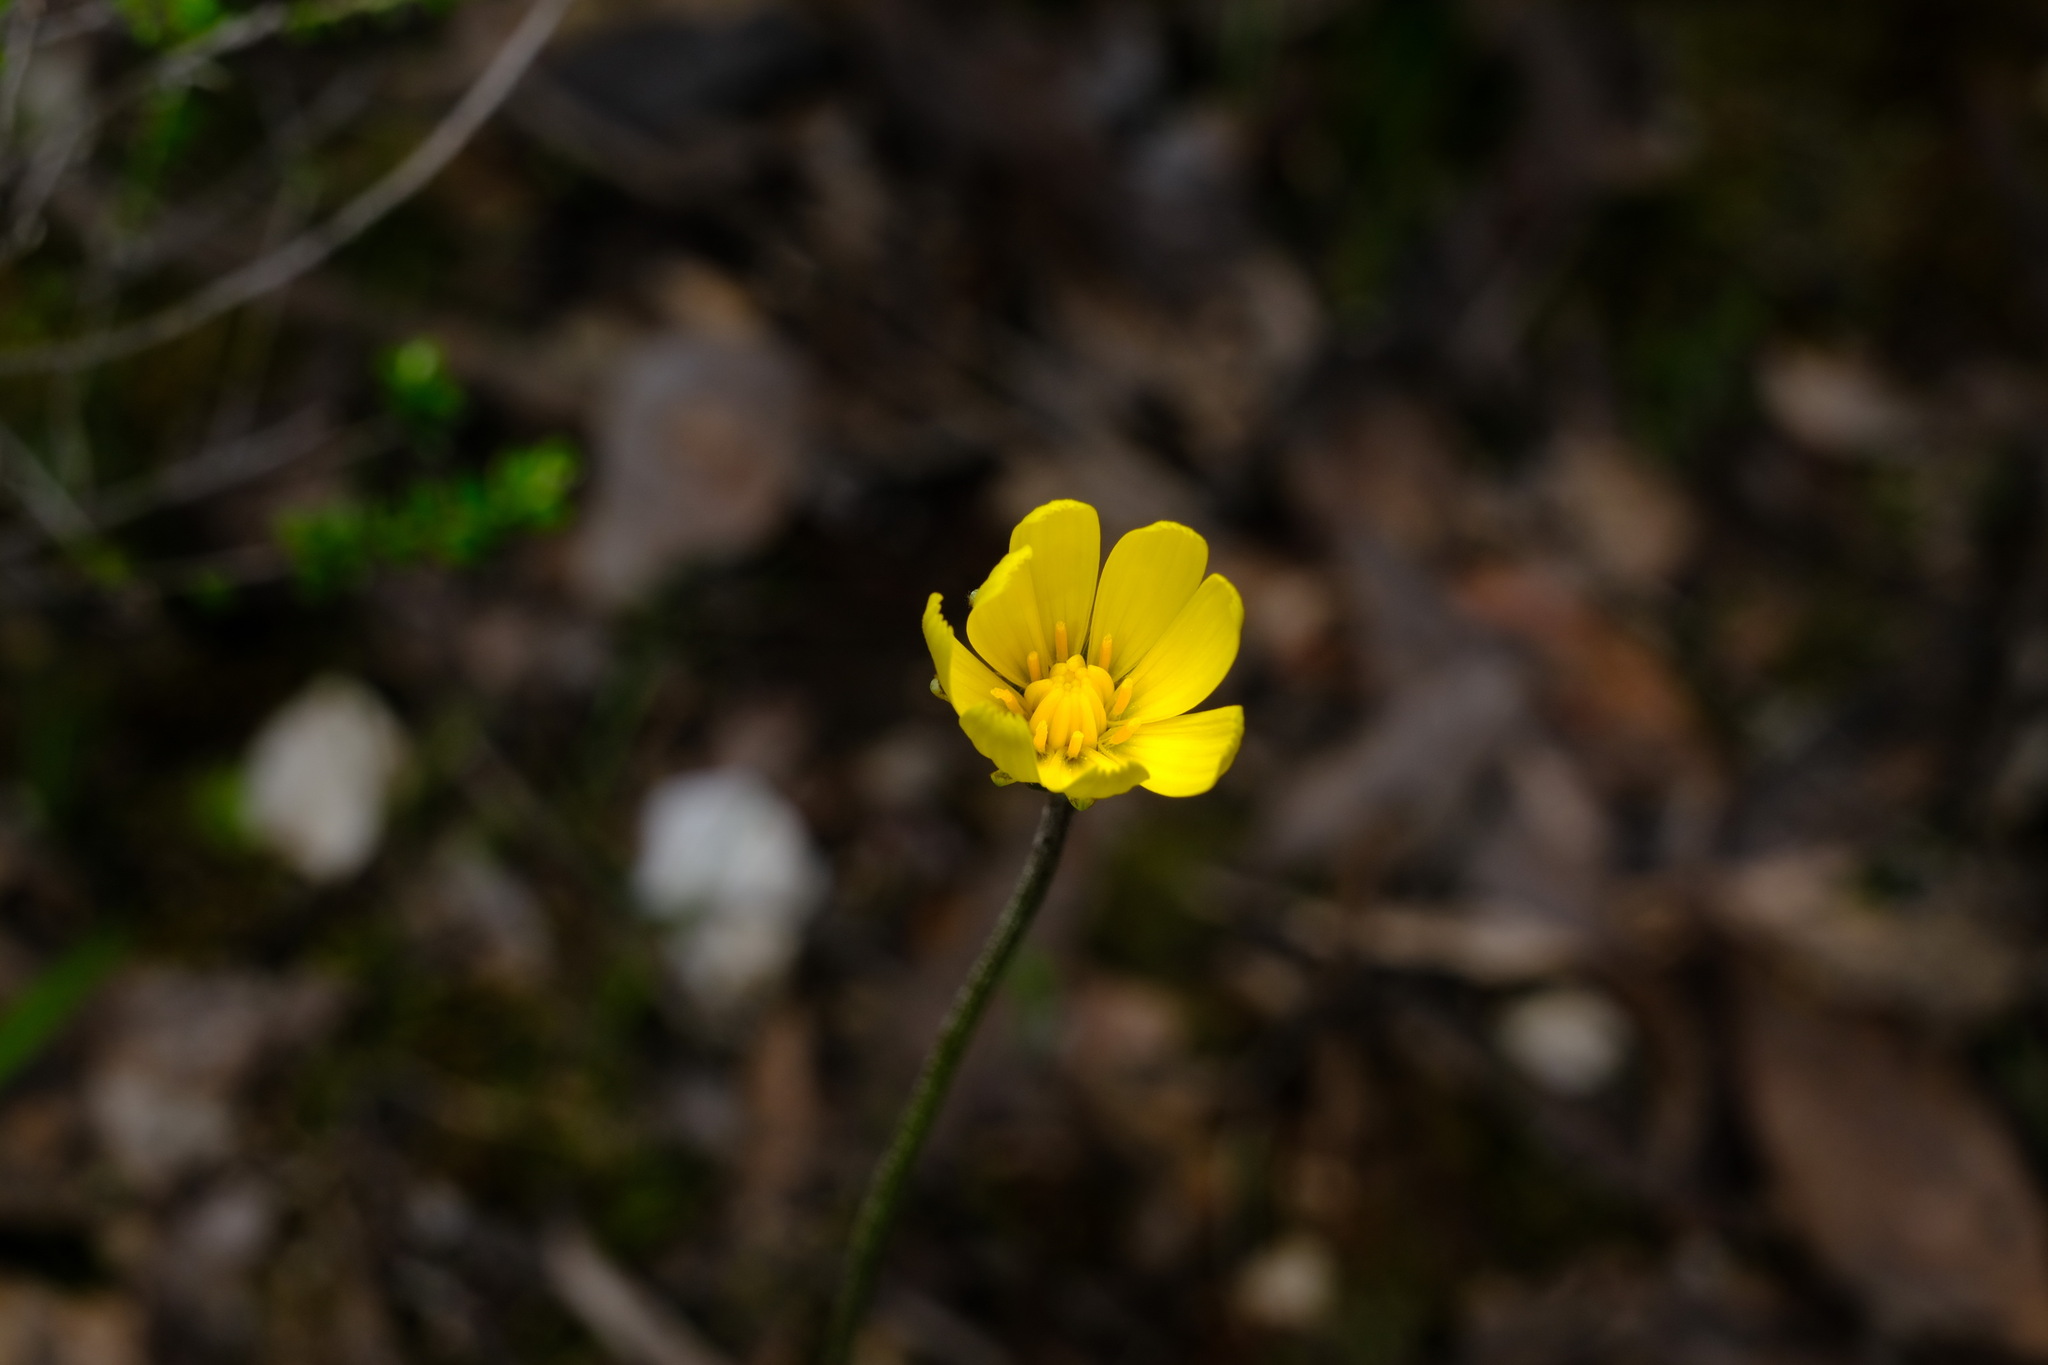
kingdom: Plantae
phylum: Tracheophyta
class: Magnoliopsida
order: Asterales
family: Asteraceae
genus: Microseris
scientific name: Microseris lanceolata
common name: Yam daisy
